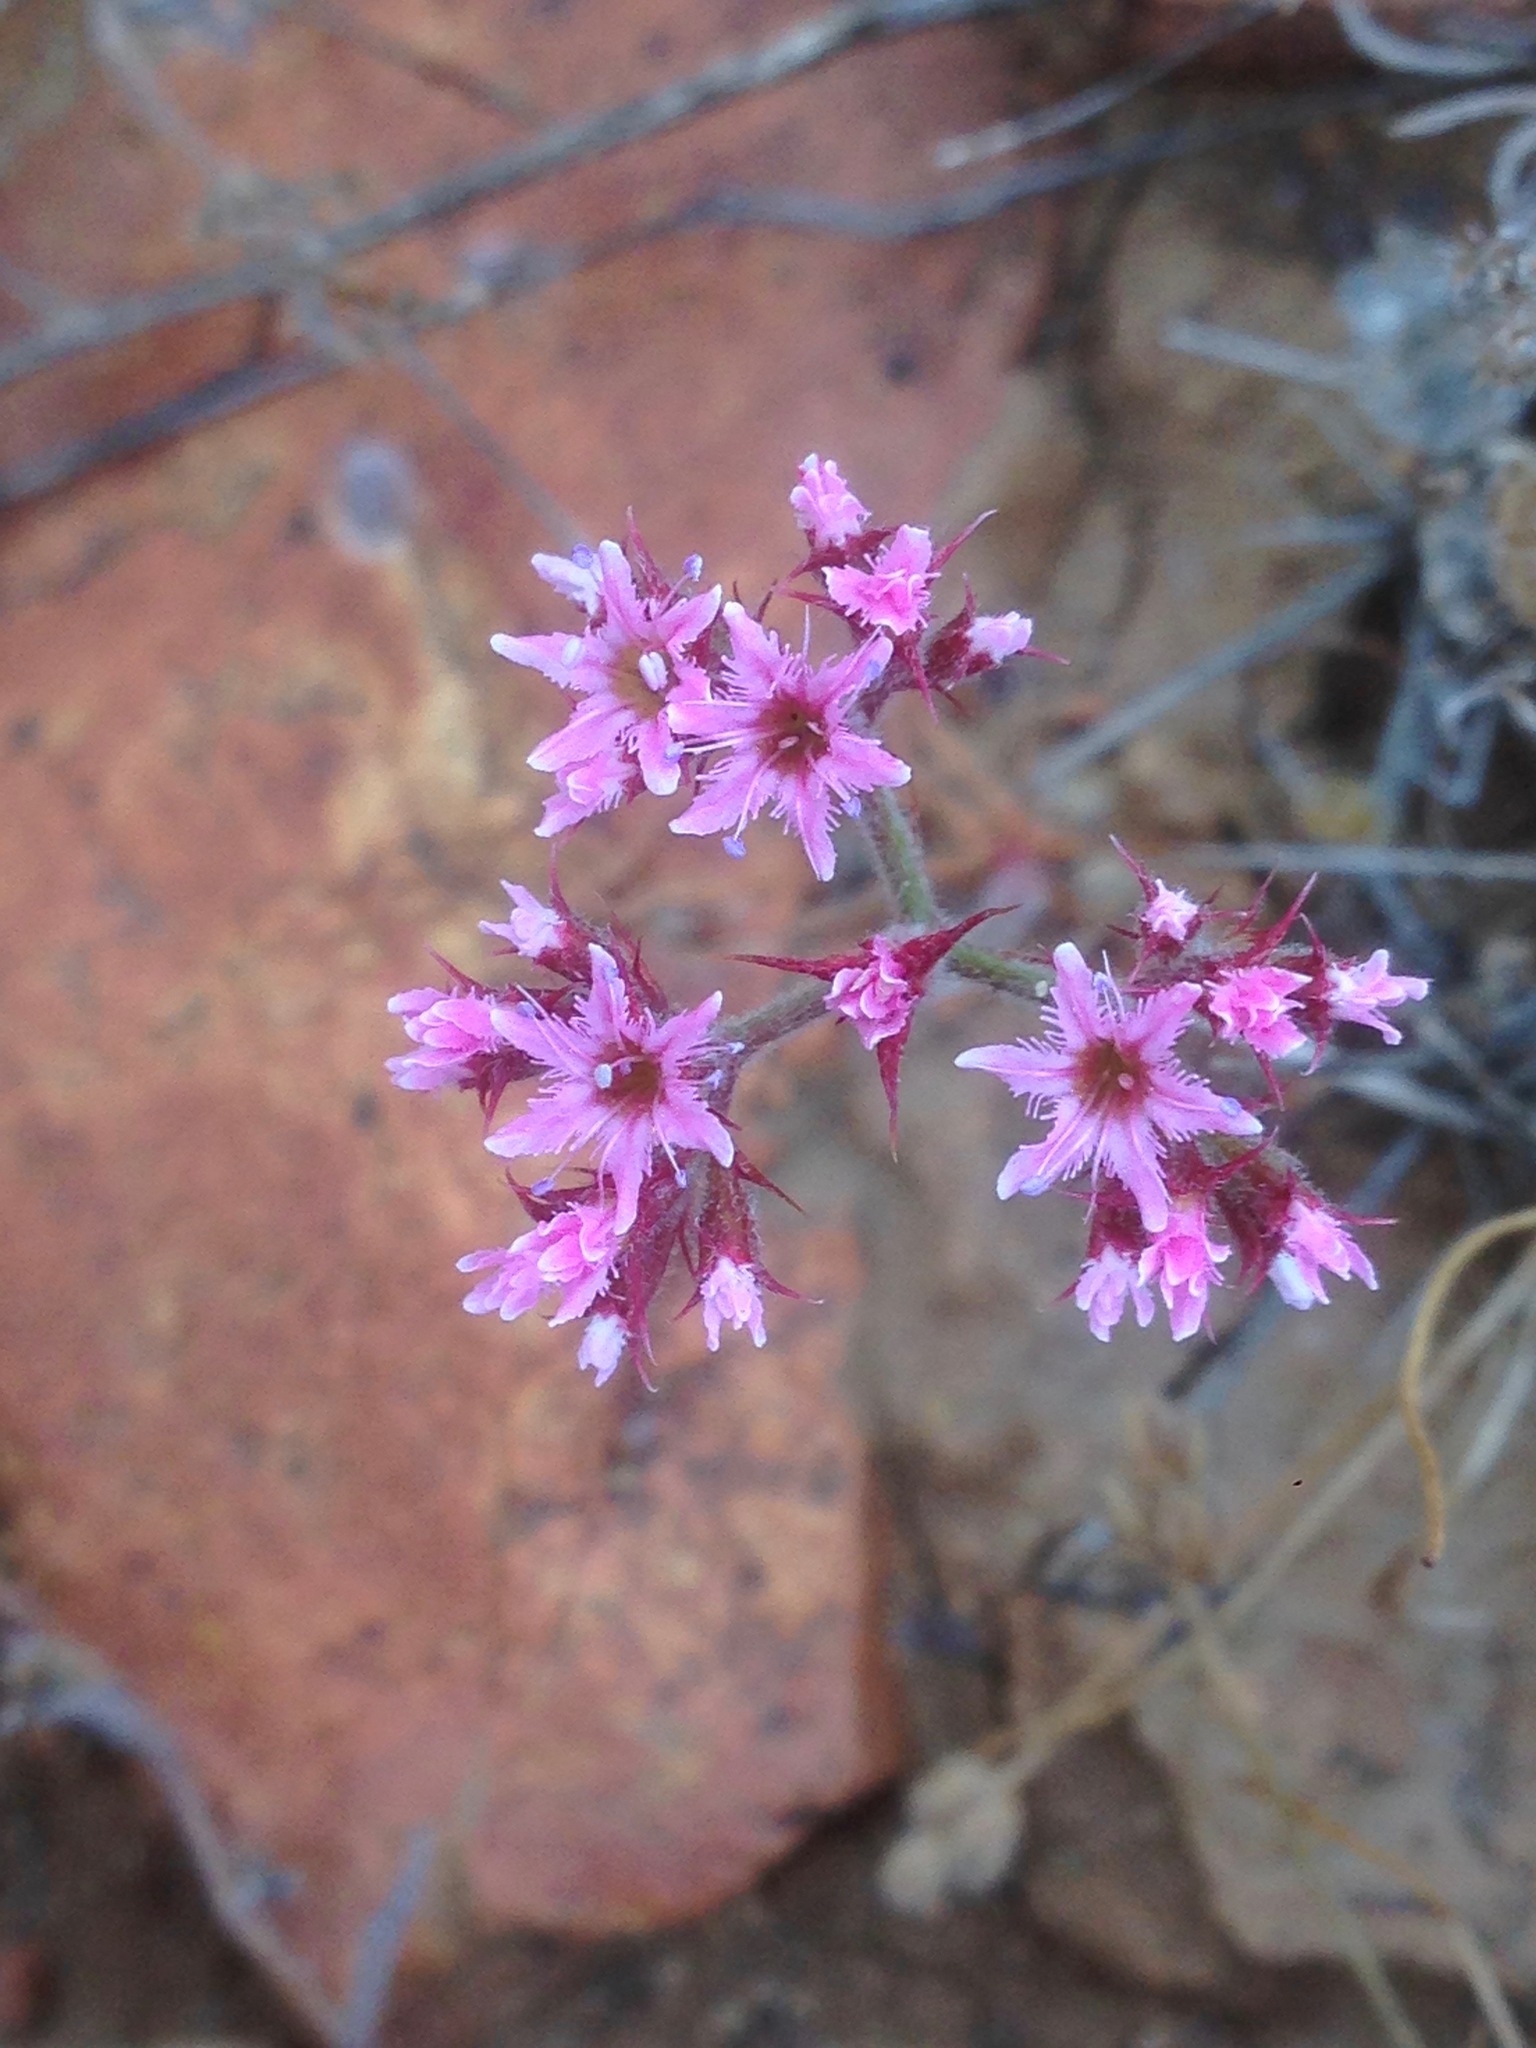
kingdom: Plantae
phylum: Tracheophyta
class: Magnoliopsida
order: Caryophyllales
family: Polygonaceae
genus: Chorizanthe
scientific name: Chorizanthe fimbriata
